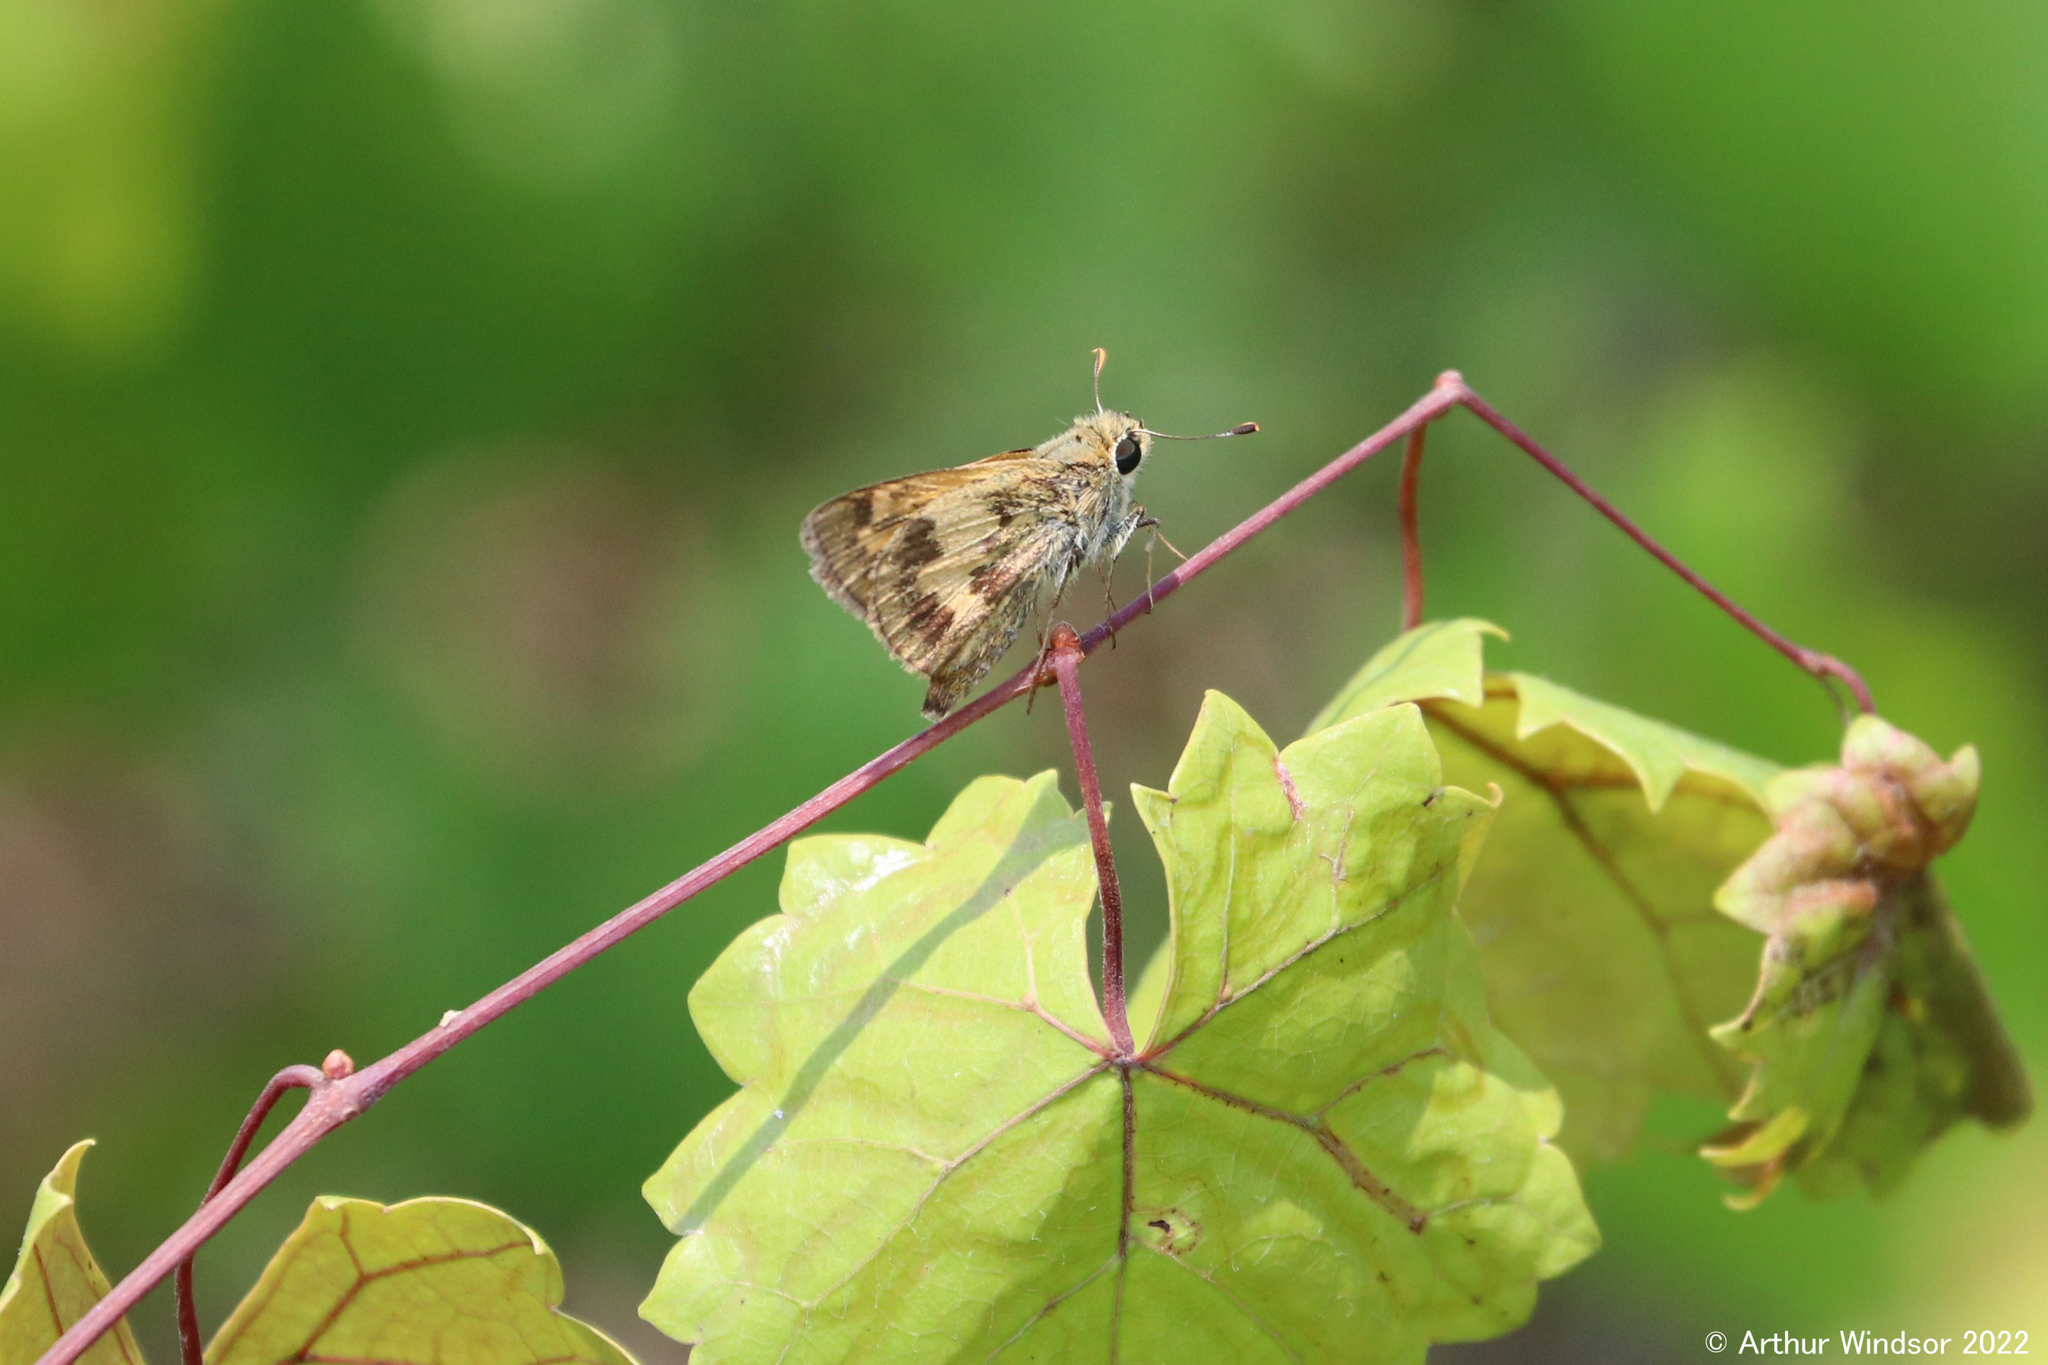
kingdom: Animalia
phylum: Arthropoda
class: Insecta
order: Lepidoptera
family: Hesperiidae
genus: Polites
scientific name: Polites vibex
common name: Whirlabout
